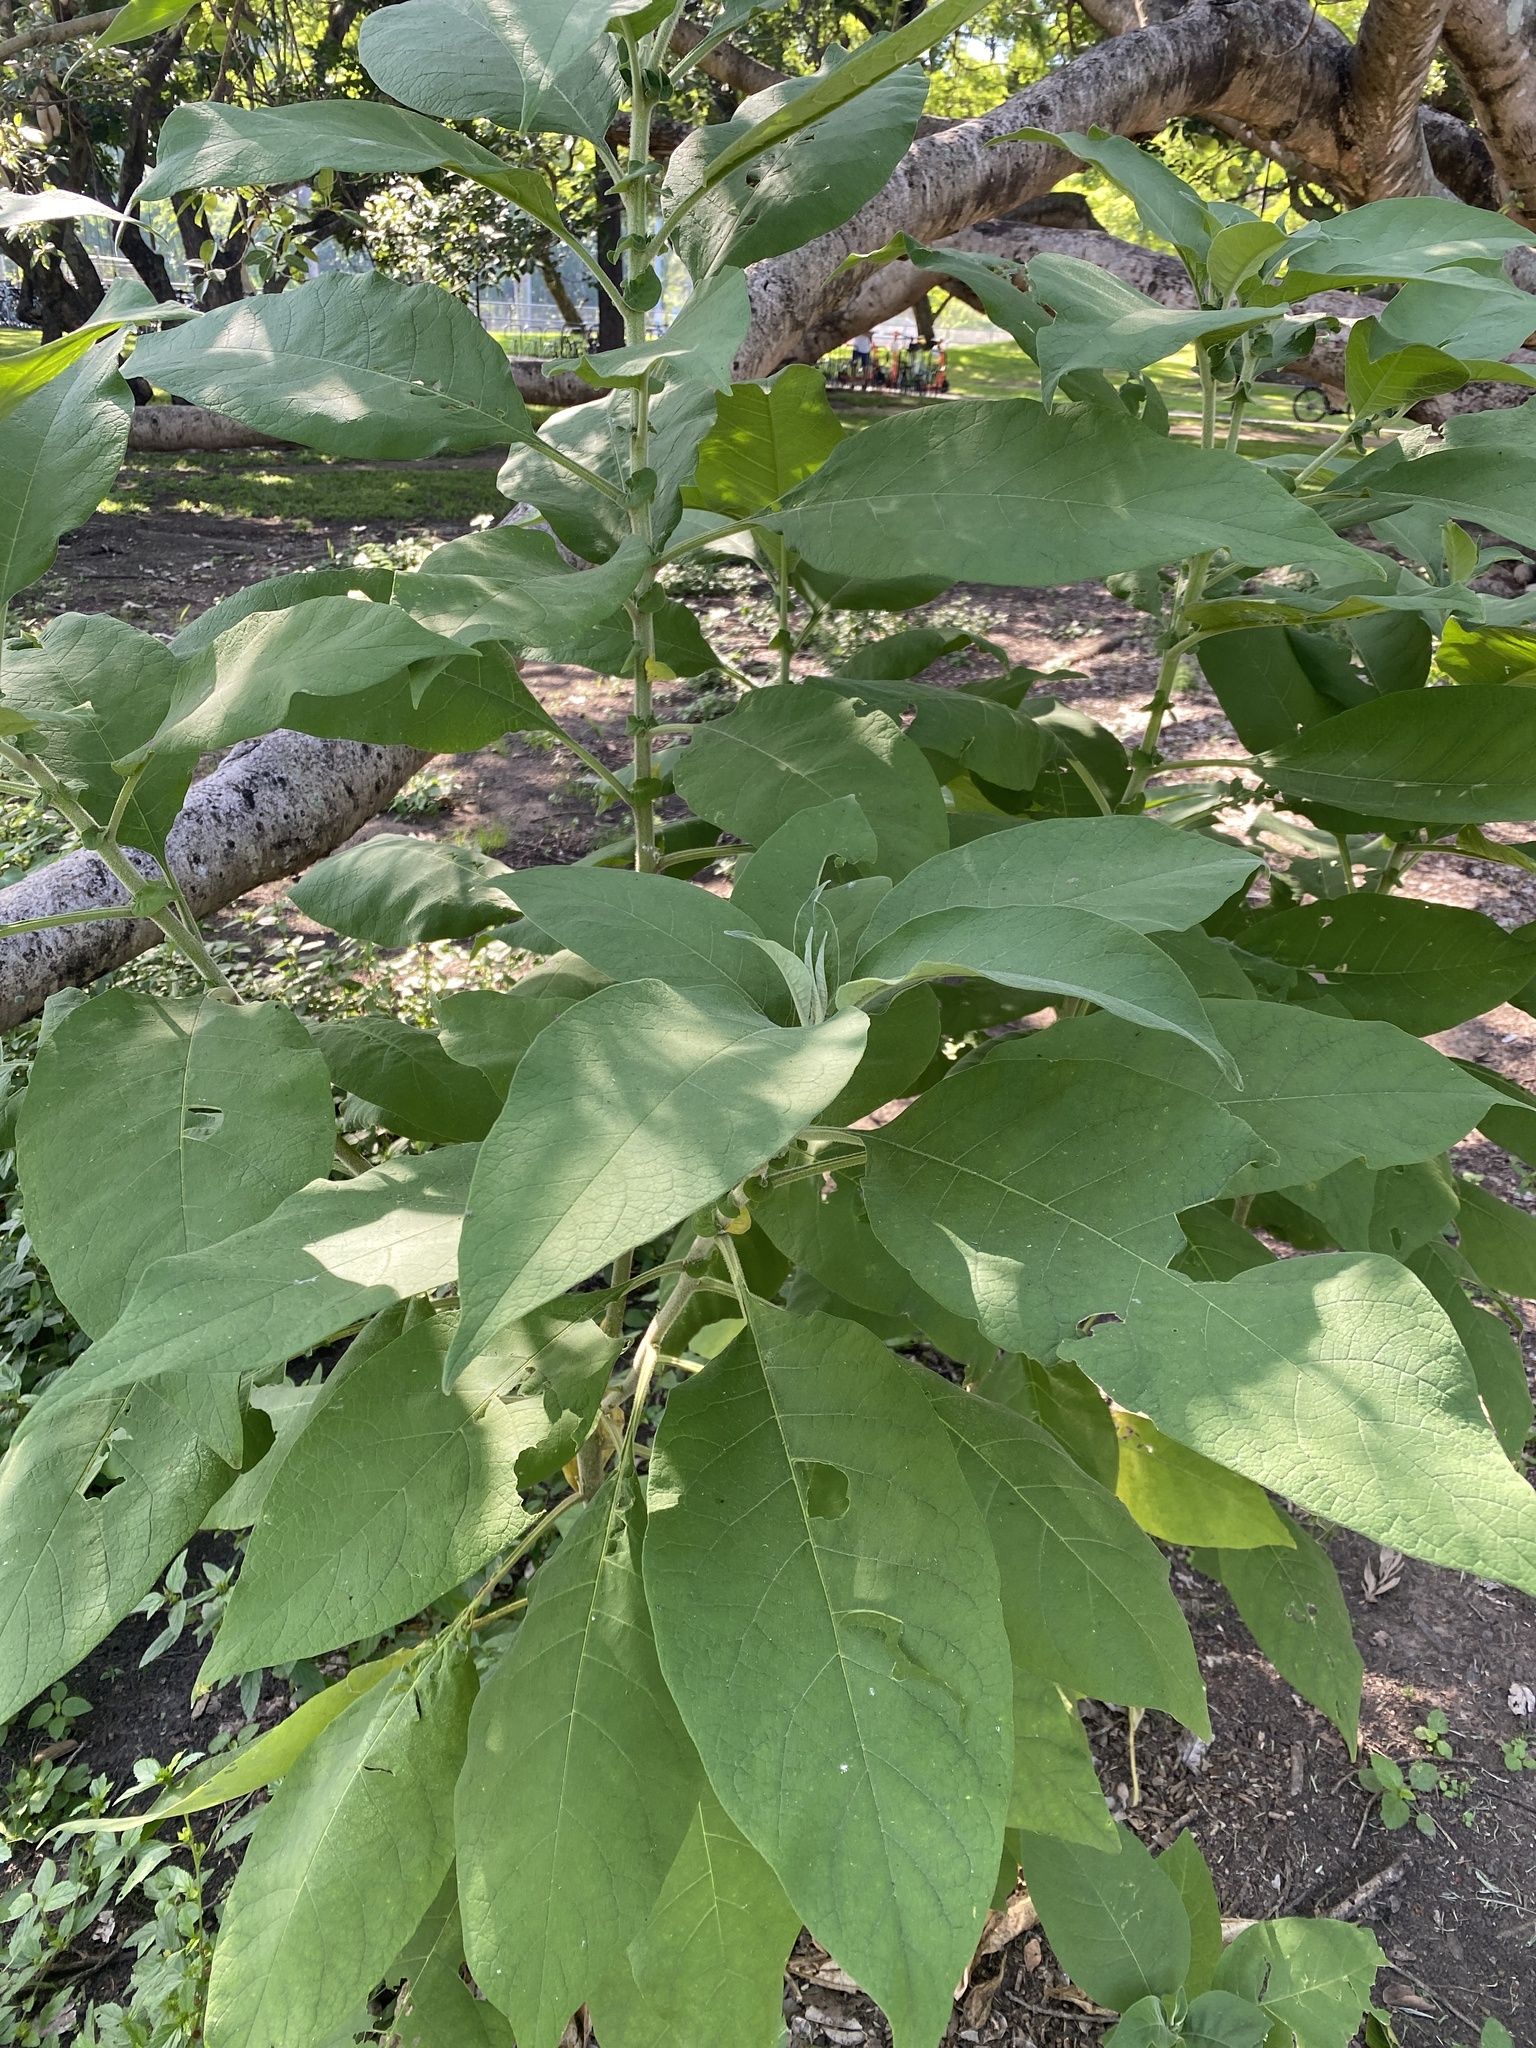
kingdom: Plantae
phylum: Tracheophyta
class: Magnoliopsida
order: Solanales
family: Solanaceae
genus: Solanum
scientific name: Solanum mauritianum
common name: Earleaf nightshade
